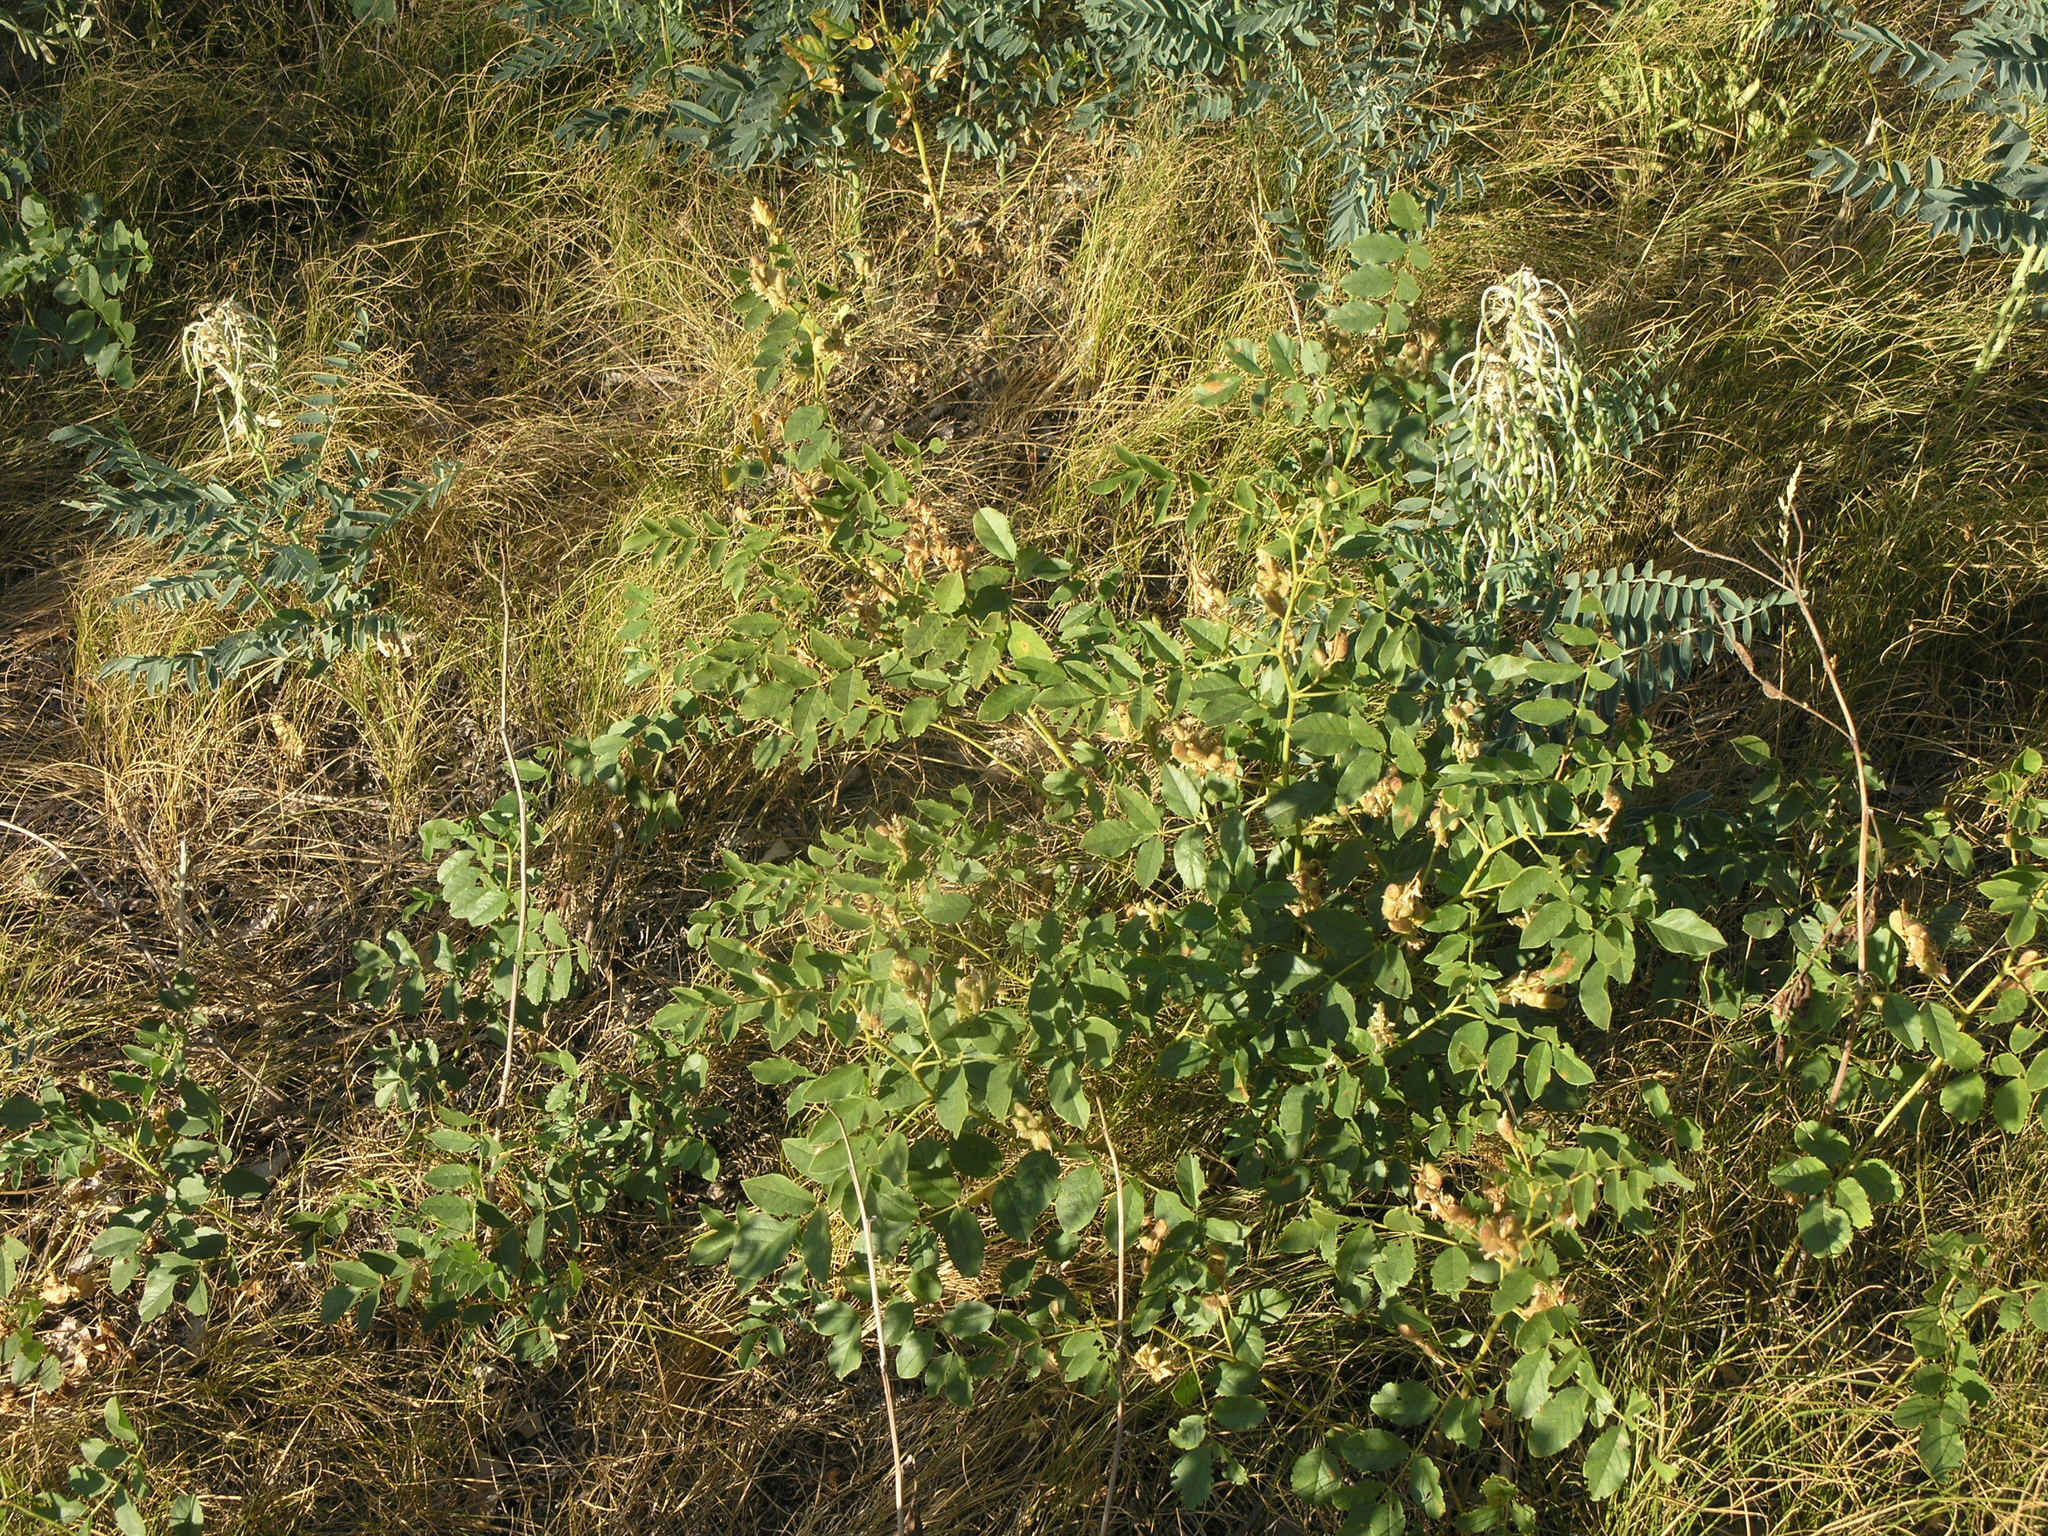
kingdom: Plantae
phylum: Tracheophyta
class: Magnoliopsida
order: Fabales
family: Fabaceae
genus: Glycyrrhiza
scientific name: Glycyrrhiza uralensis
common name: Chinese licorice
